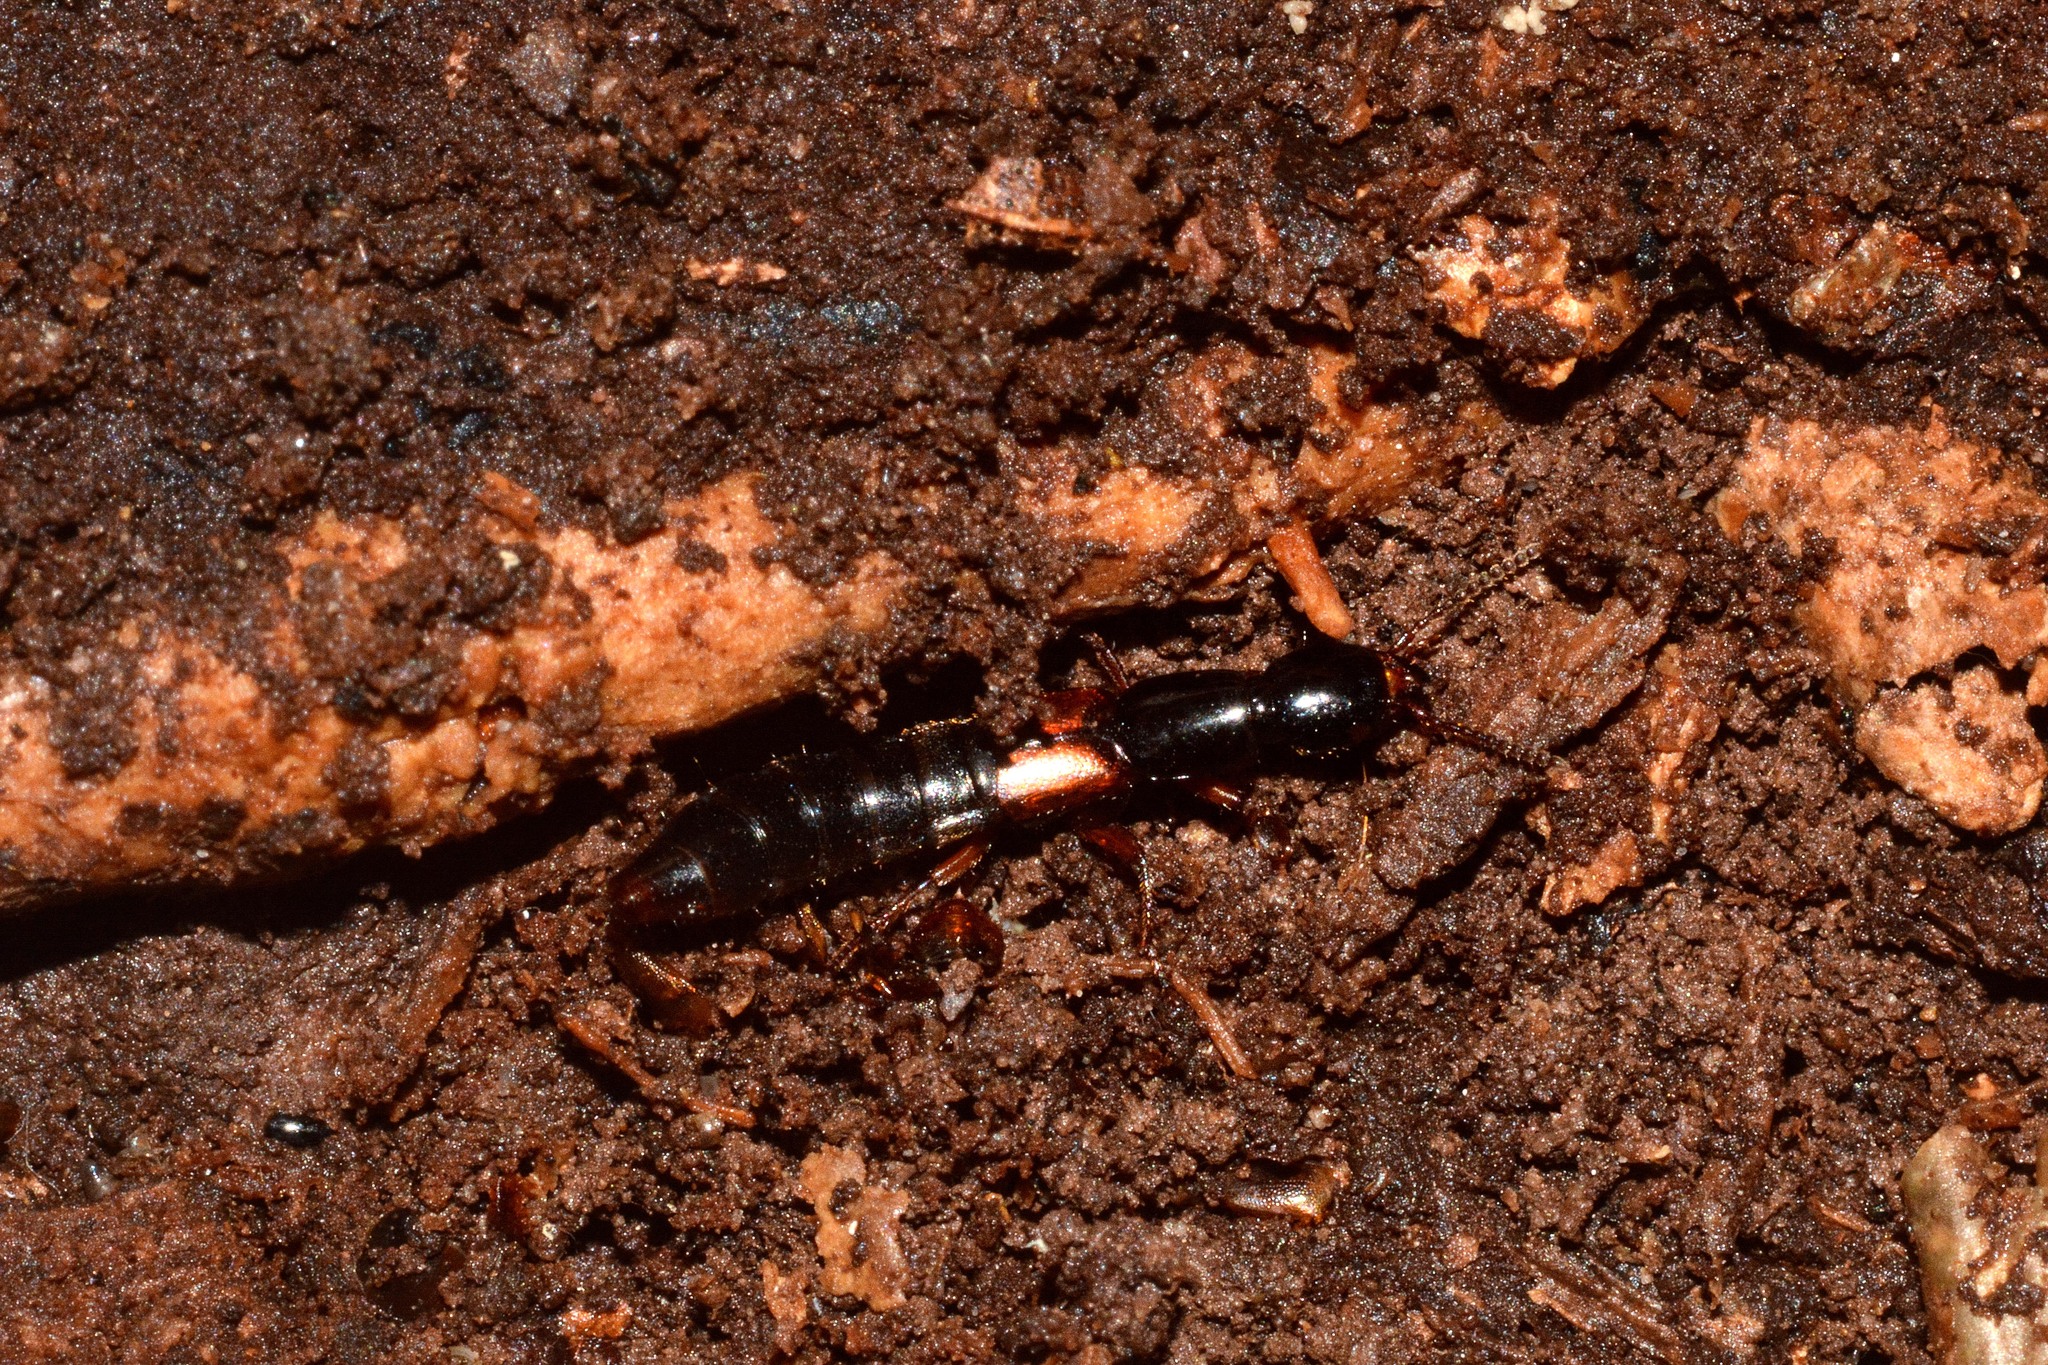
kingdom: Animalia
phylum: Arthropoda
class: Insecta
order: Coleoptera
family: Staphylinidae
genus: Othius
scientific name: Othius punctulatus
